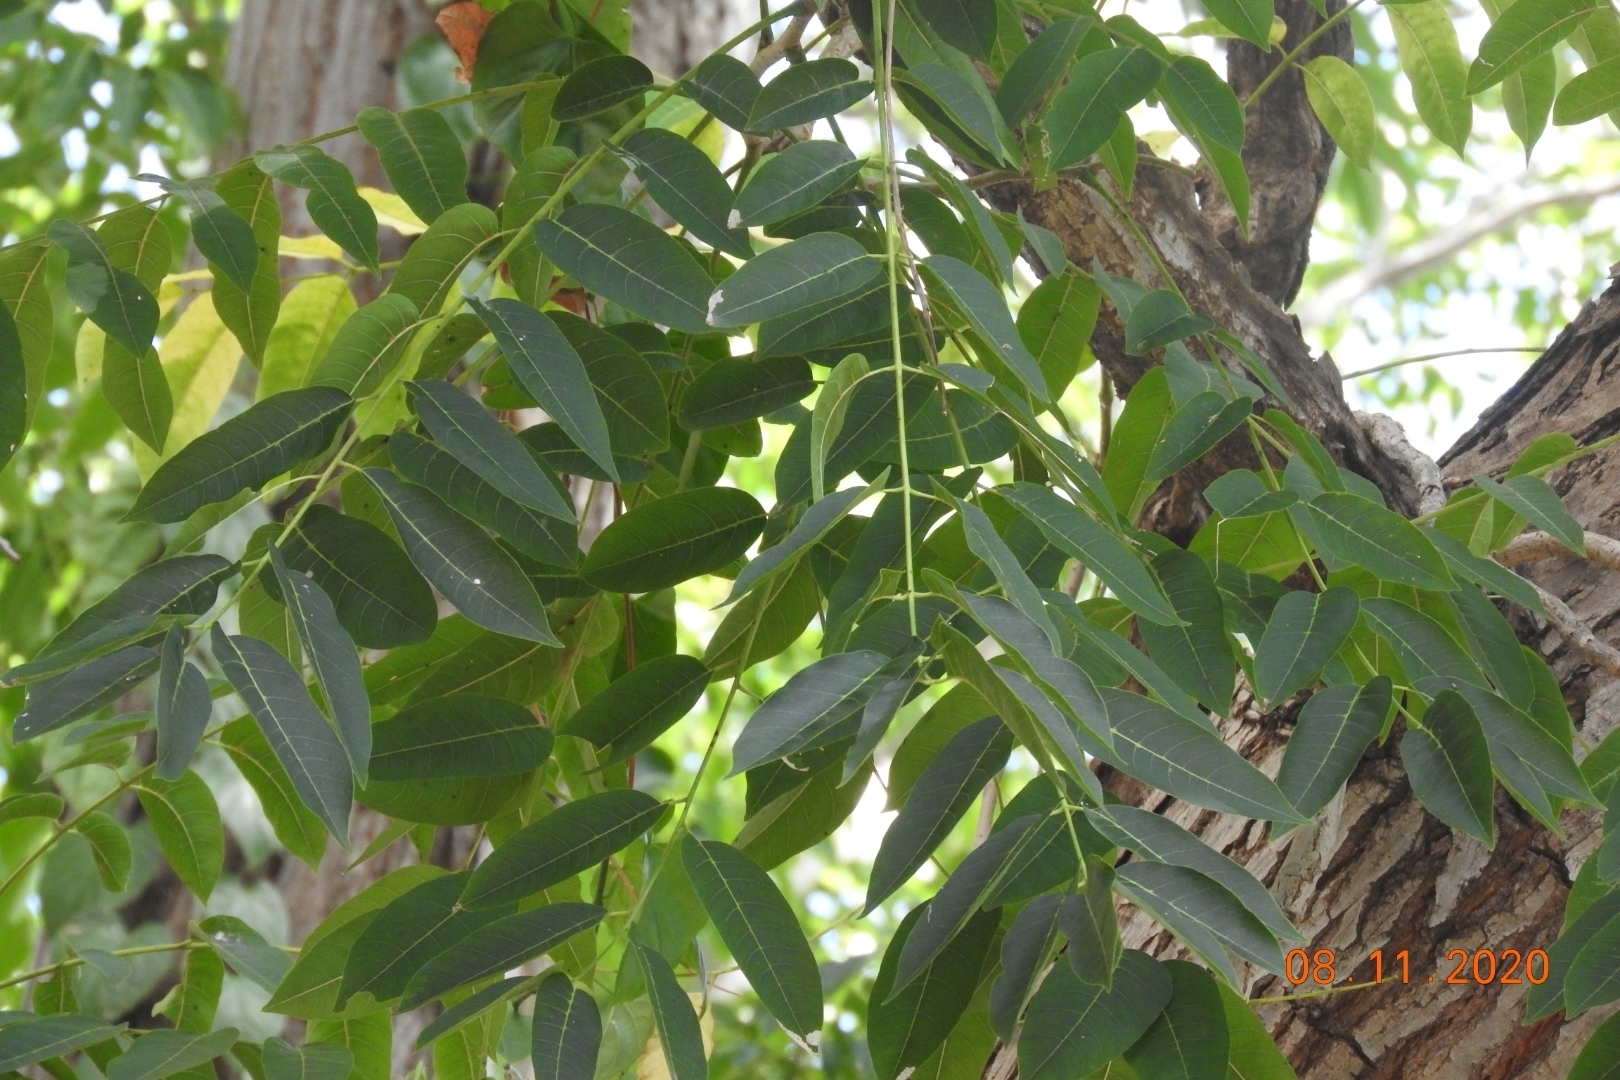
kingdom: Plantae
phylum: Tracheophyta
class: Magnoliopsida
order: Sapindales
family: Meliaceae
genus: Cedrela
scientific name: Cedrela odorata
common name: Red cedar
